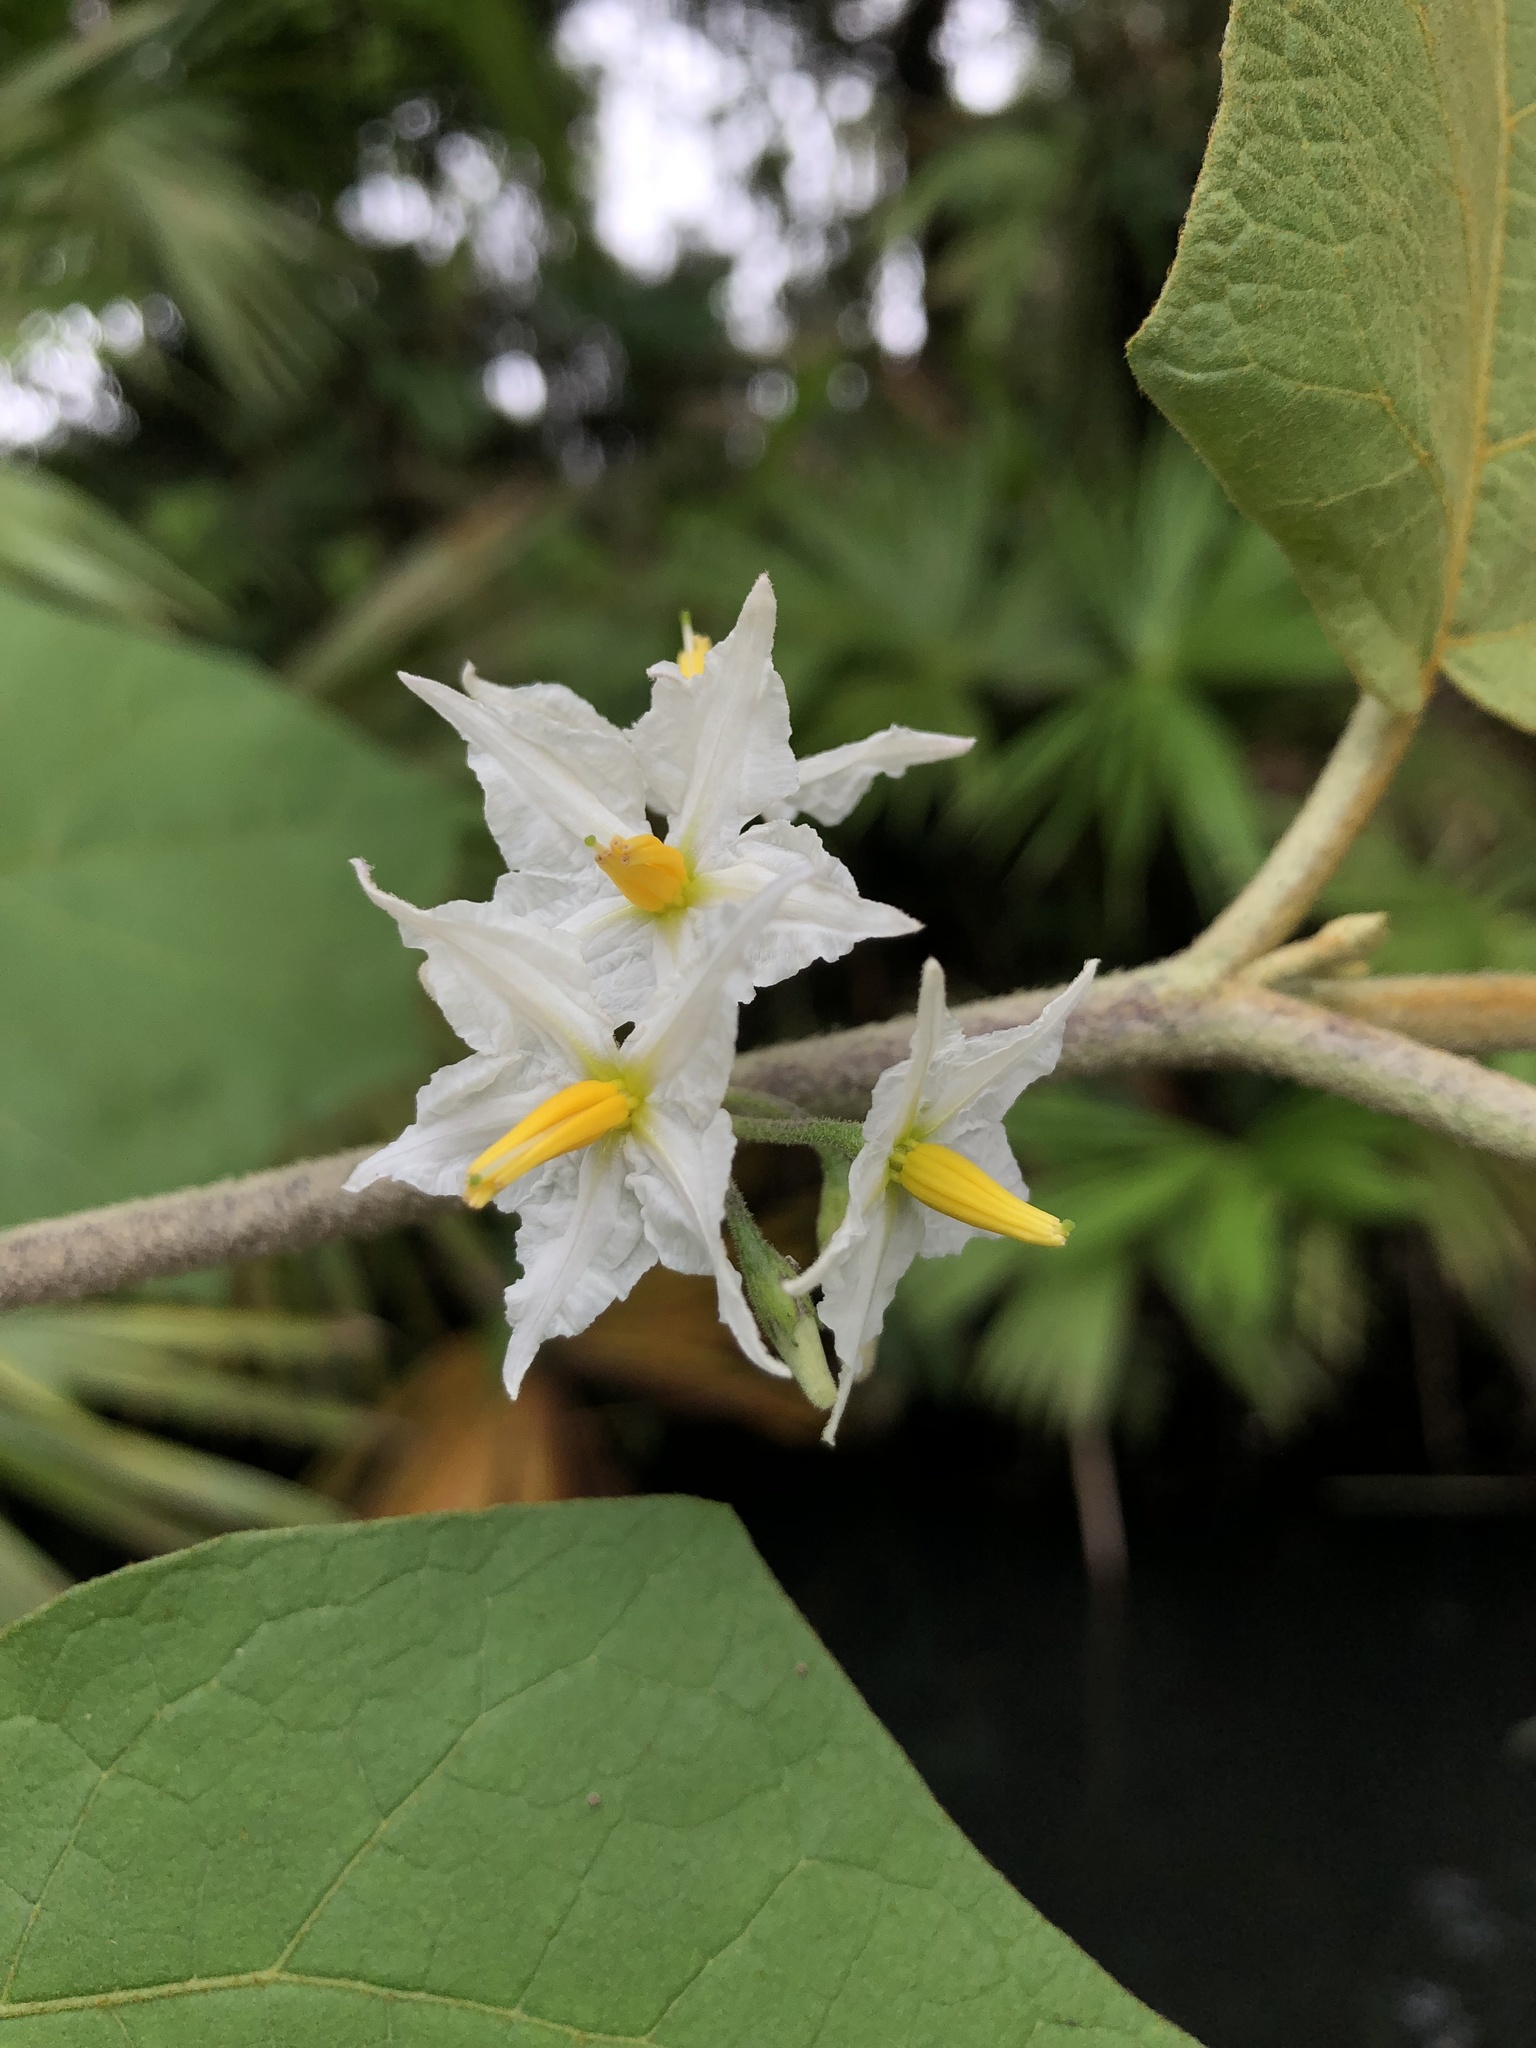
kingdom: Plantae
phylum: Tracheophyta
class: Magnoliopsida
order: Solanales
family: Solanaceae
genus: Solanum
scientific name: Solanum torvum
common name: Turkey berry
